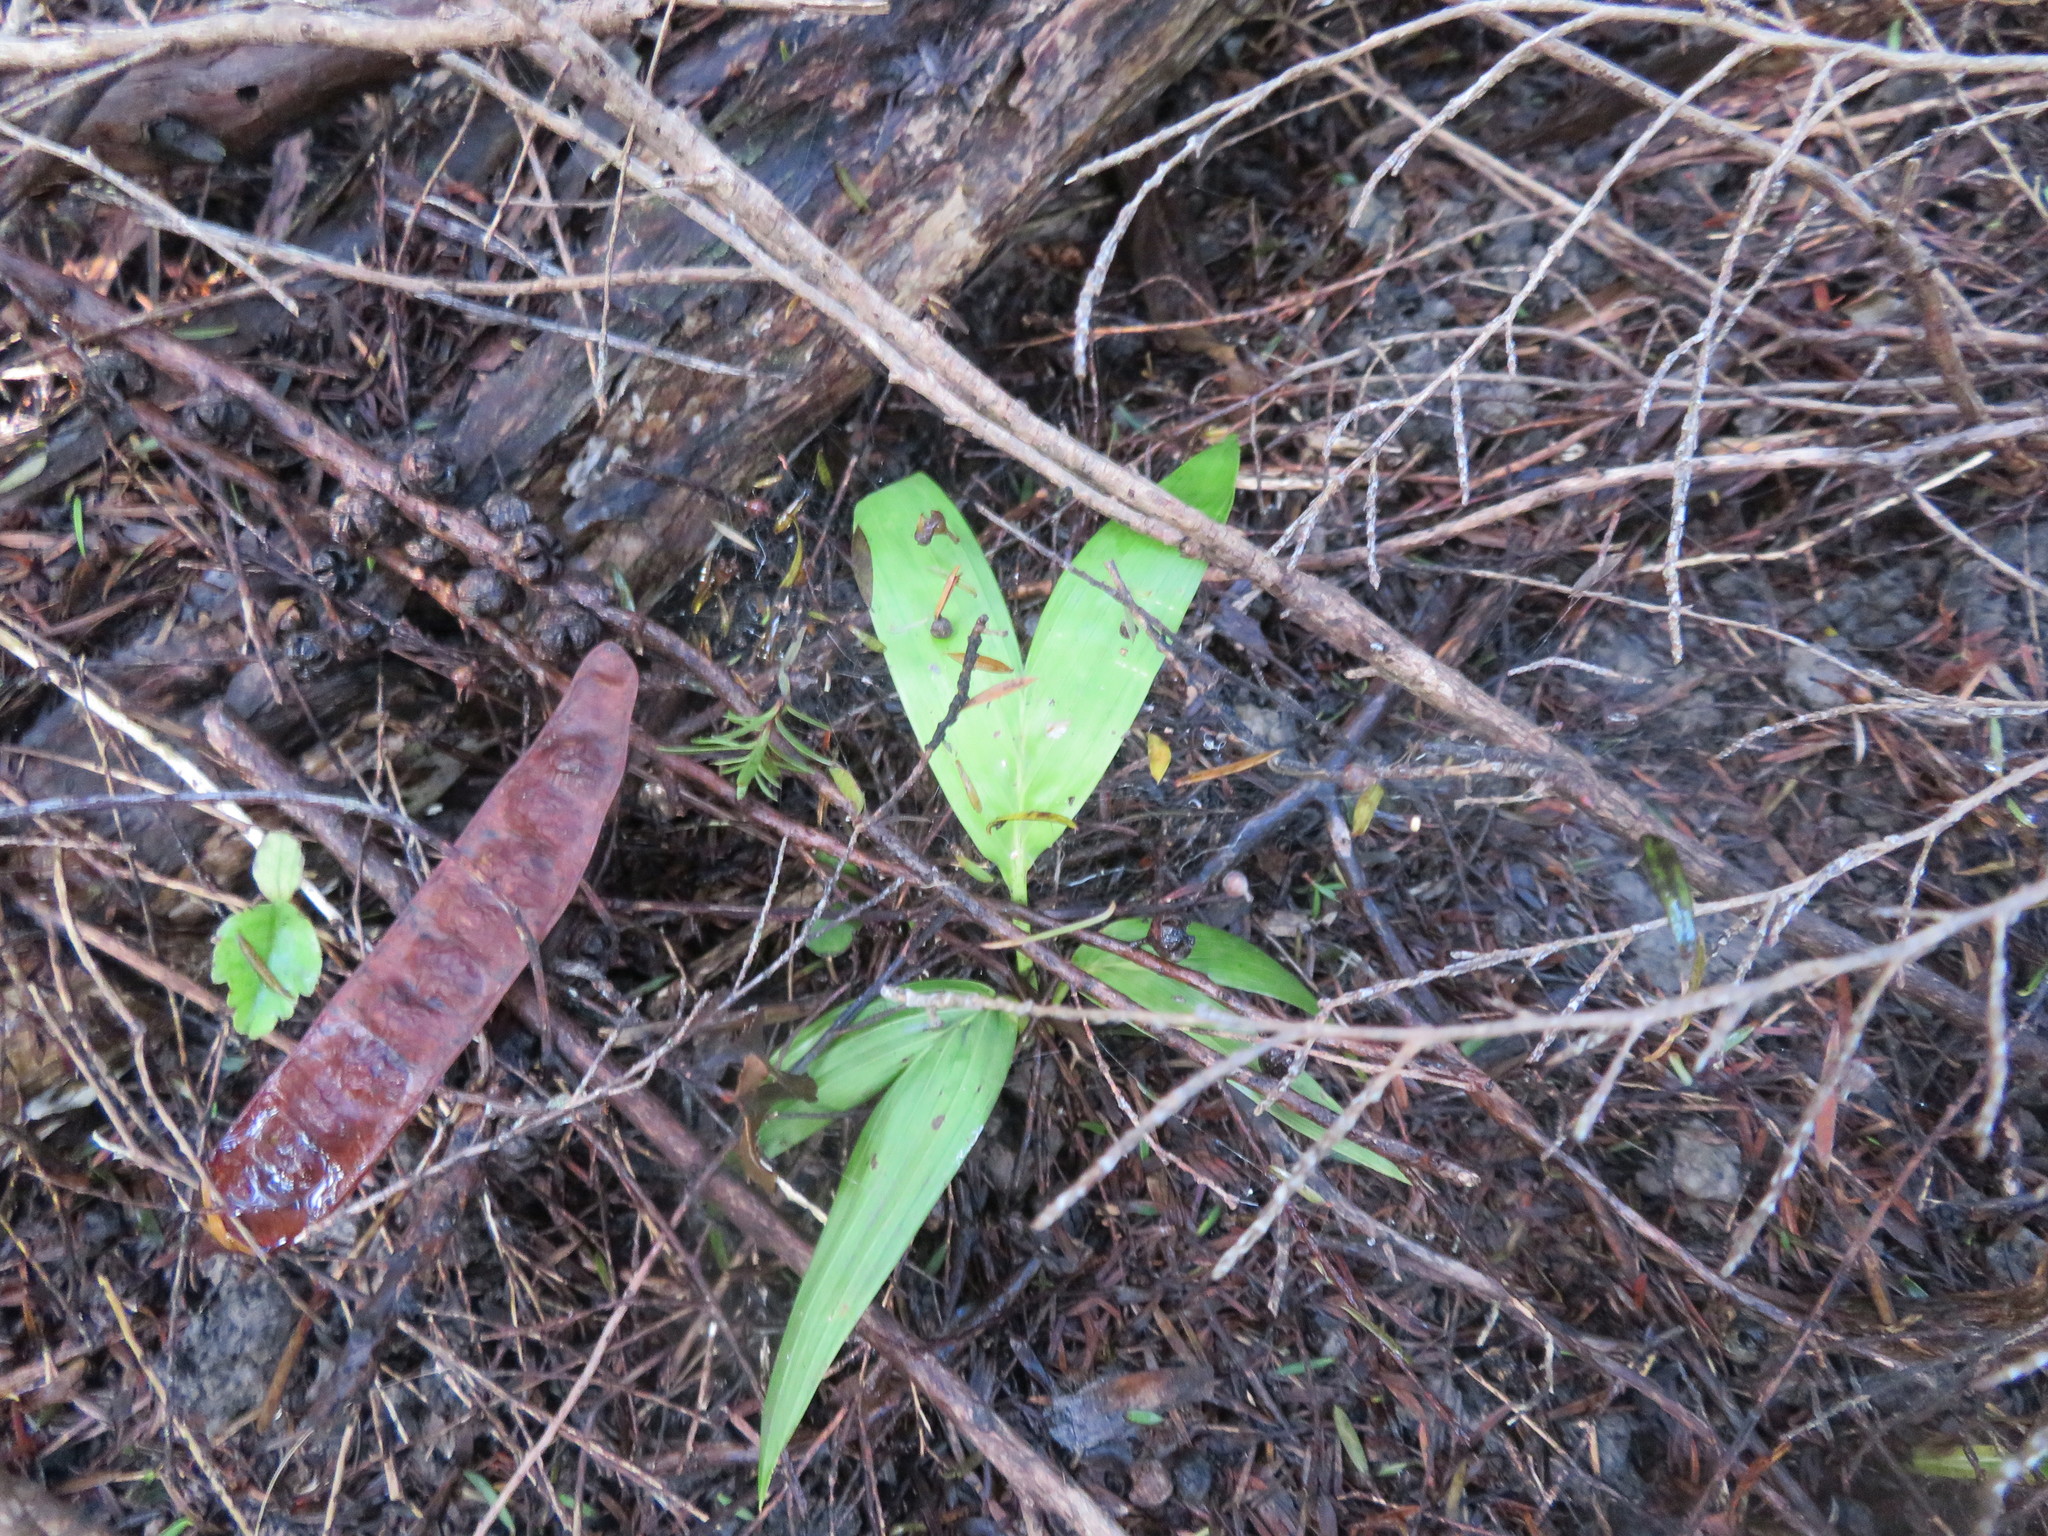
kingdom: Plantae
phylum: Tracheophyta
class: Liliopsida
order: Arecales
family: Arecaceae
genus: Archontophoenix
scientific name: Archontophoenix cunninghamiana
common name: Piccabeen bangalow palm
